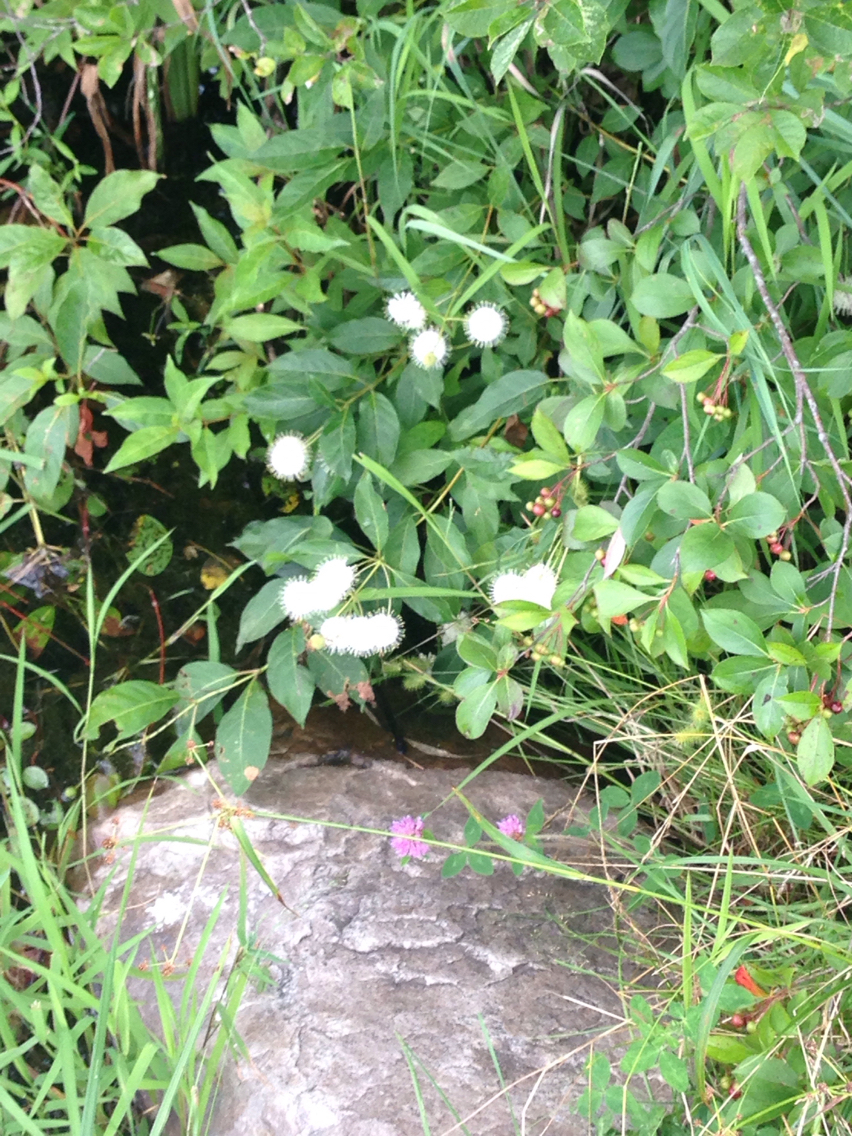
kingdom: Plantae
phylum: Tracheophyta
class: Magnoliopsida
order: Gentianales
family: Rubiaceae
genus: Cephalanthus
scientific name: Cephalanthus occidentalis
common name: Button-willow
